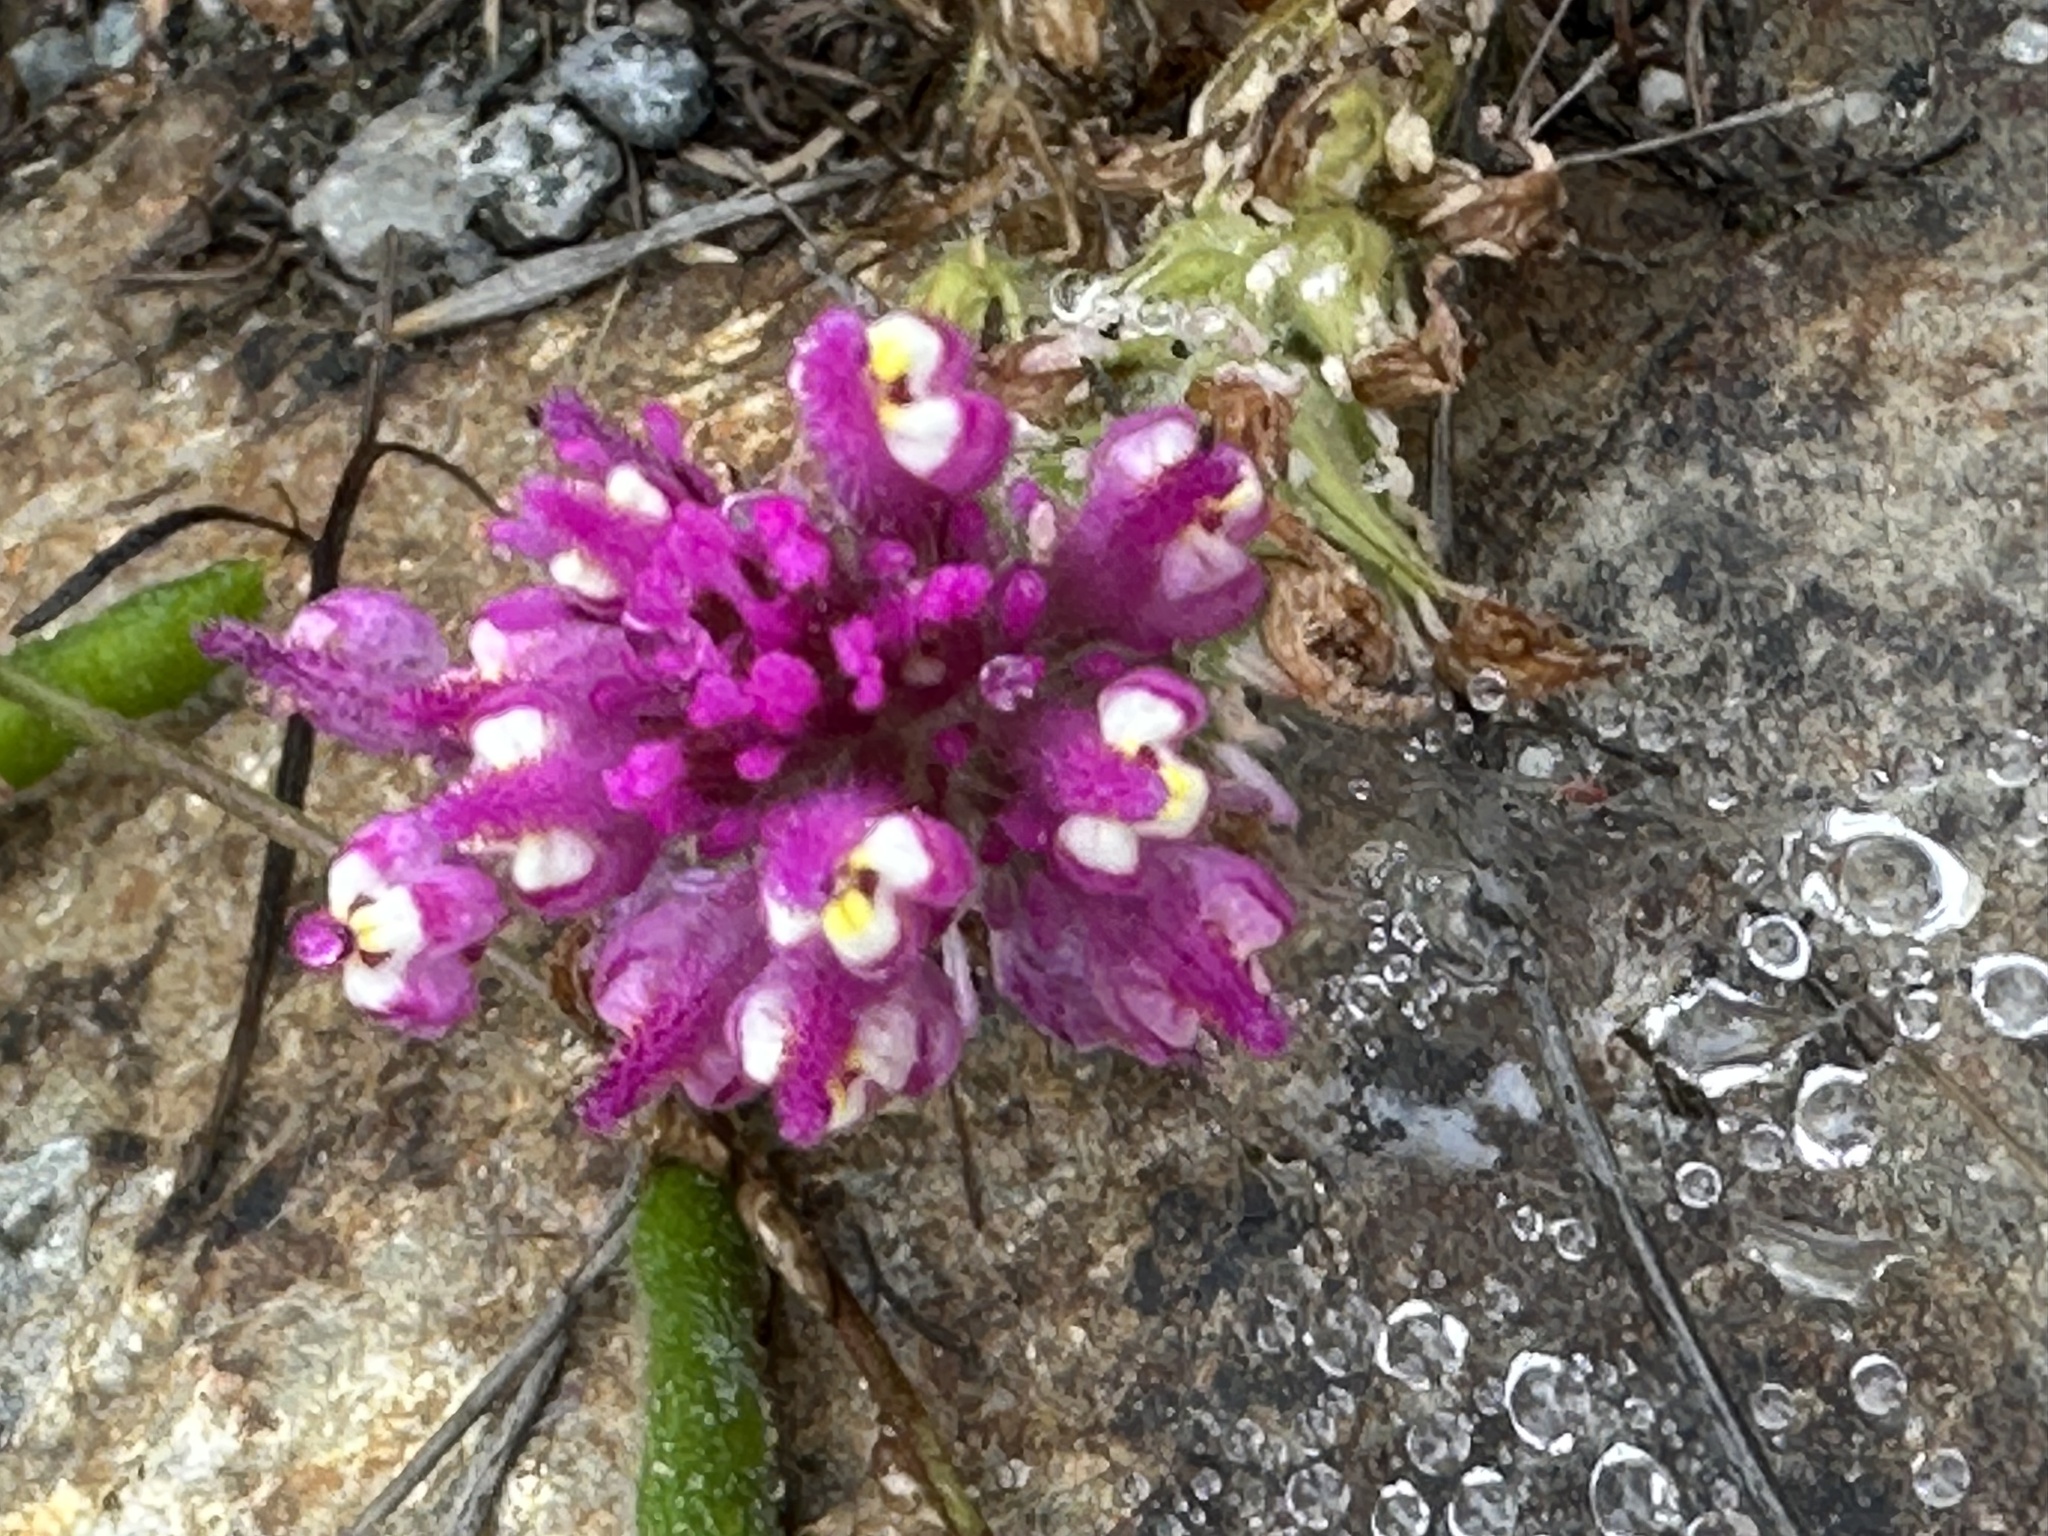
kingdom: Plantae
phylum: Tracheophyta
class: Magnoliopsida
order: Lamiales
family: Orobanchaceae
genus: Castilleja
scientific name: Castilleja exserta
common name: Purple owl-clover
